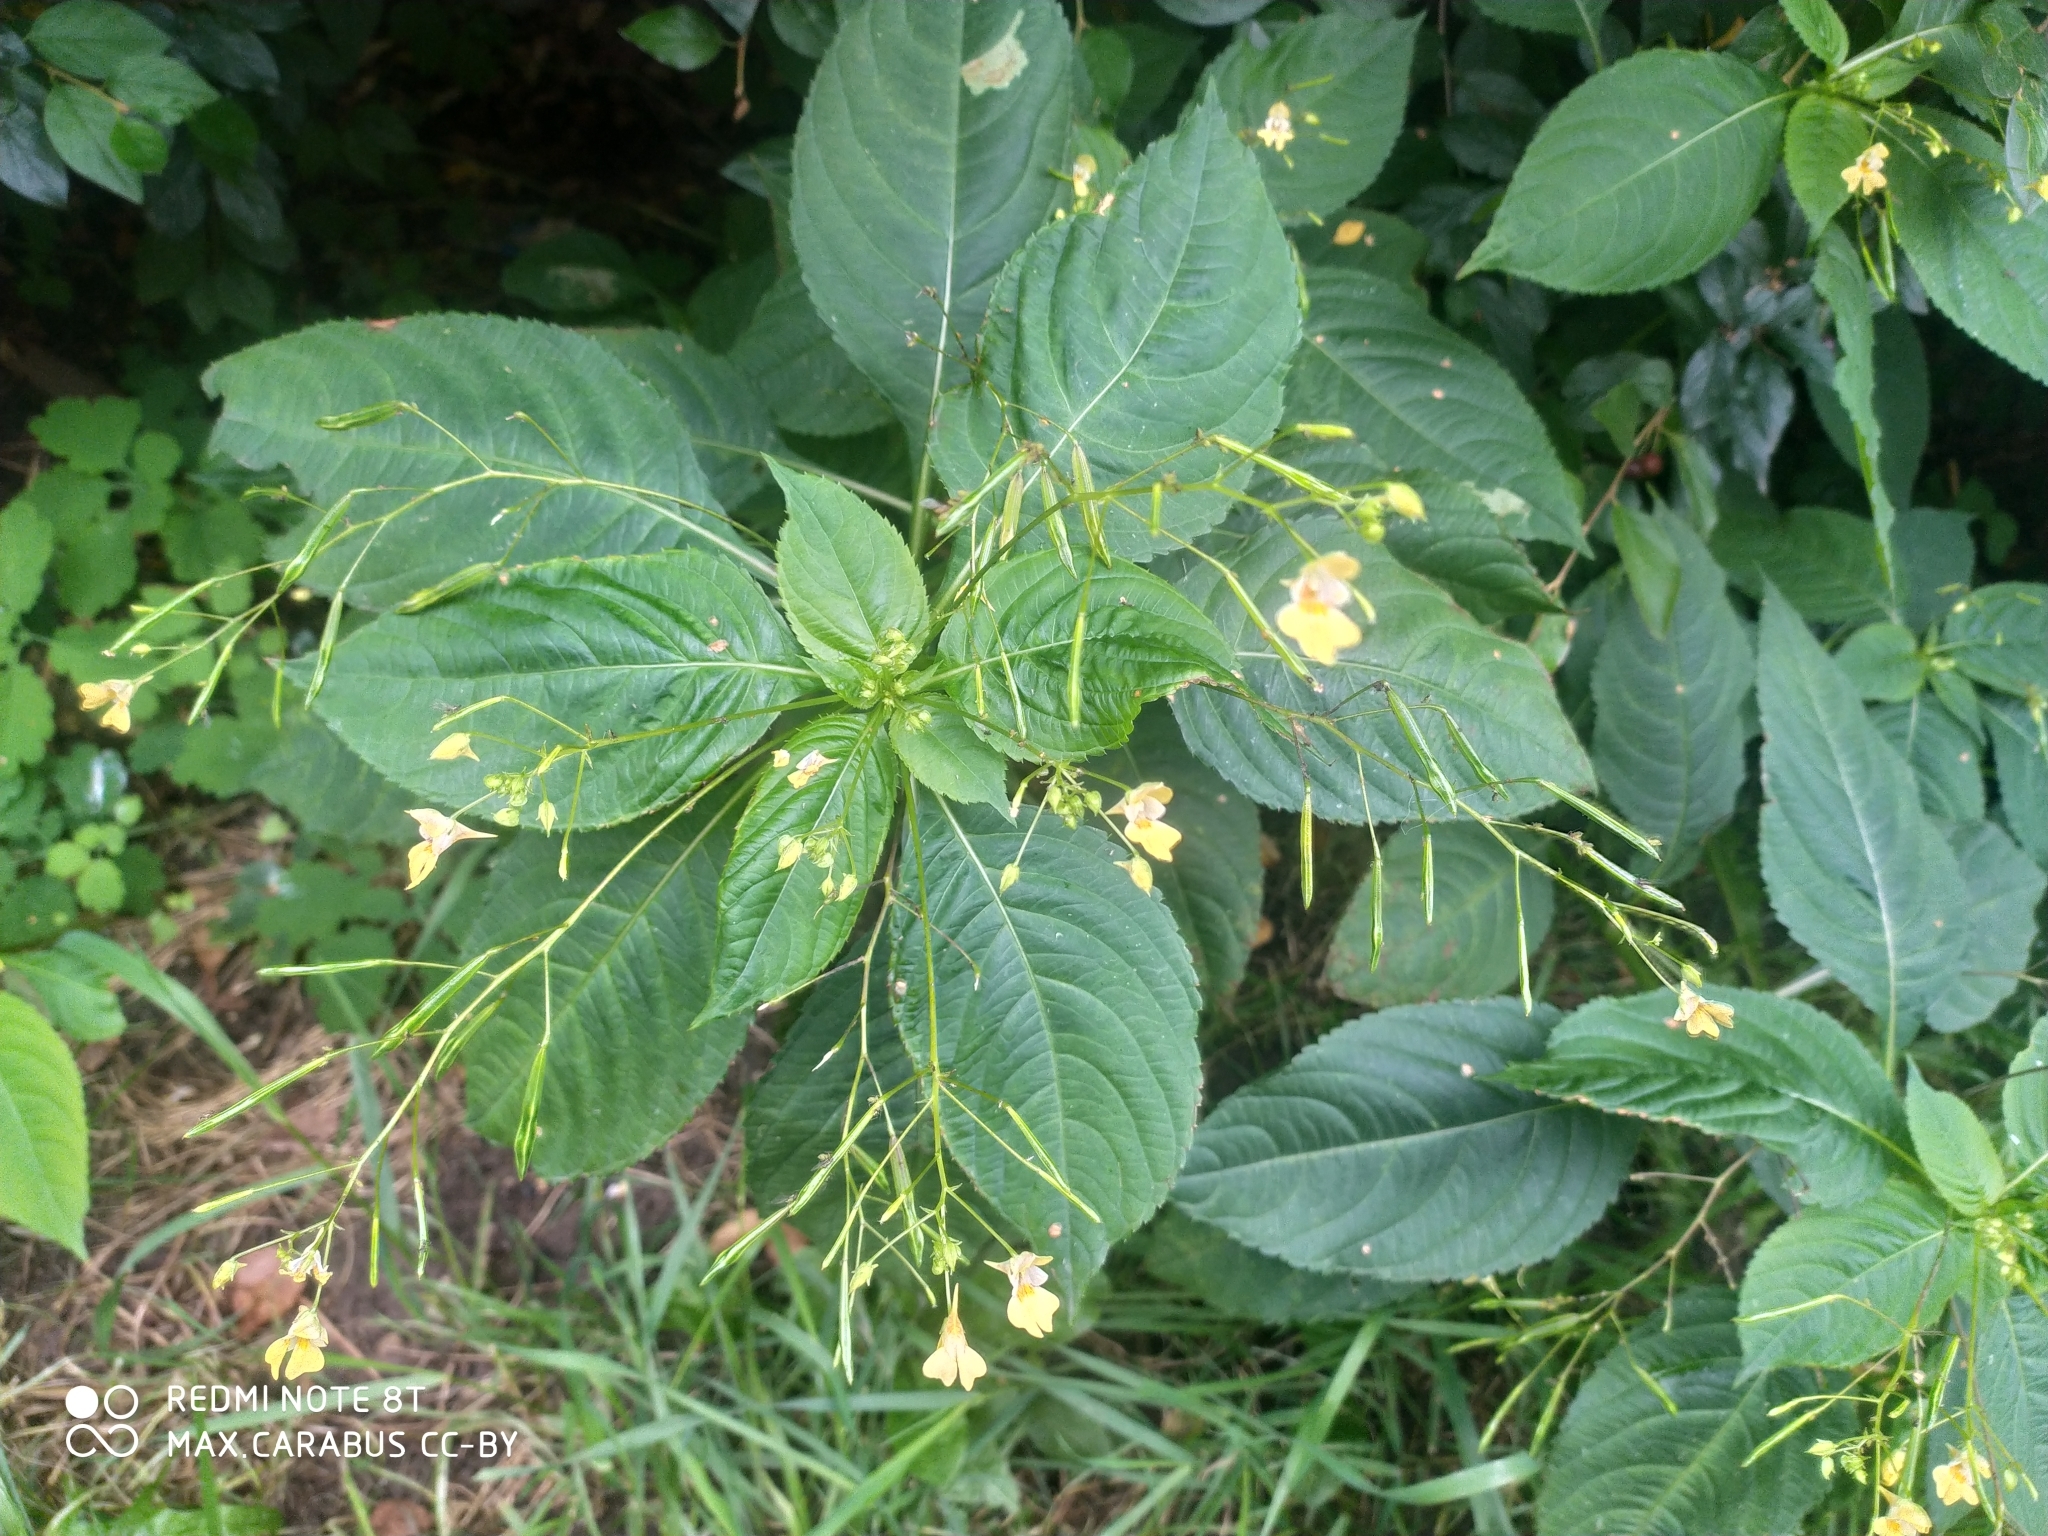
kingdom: Plantae
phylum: Tracheophyta
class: Magnoliopsida
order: Ericales
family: Balsaminaceae
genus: Impatiens
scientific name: Impatiens parviflora
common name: Small balsam
